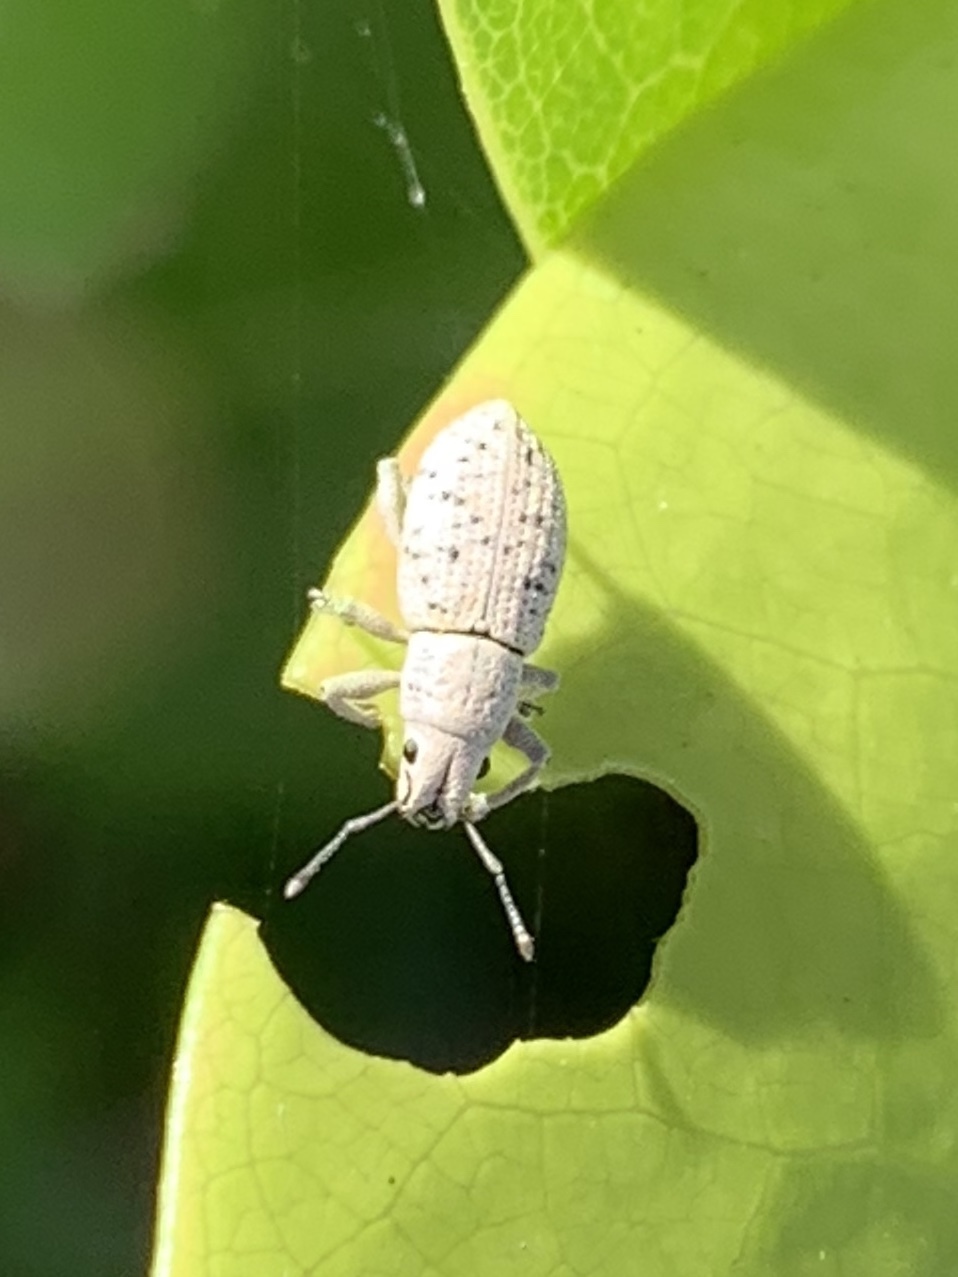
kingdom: Animalia
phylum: Arthropoda
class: Insecta
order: Coleoptera
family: Curculionidae
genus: Artipus
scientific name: Artipus floridanus
